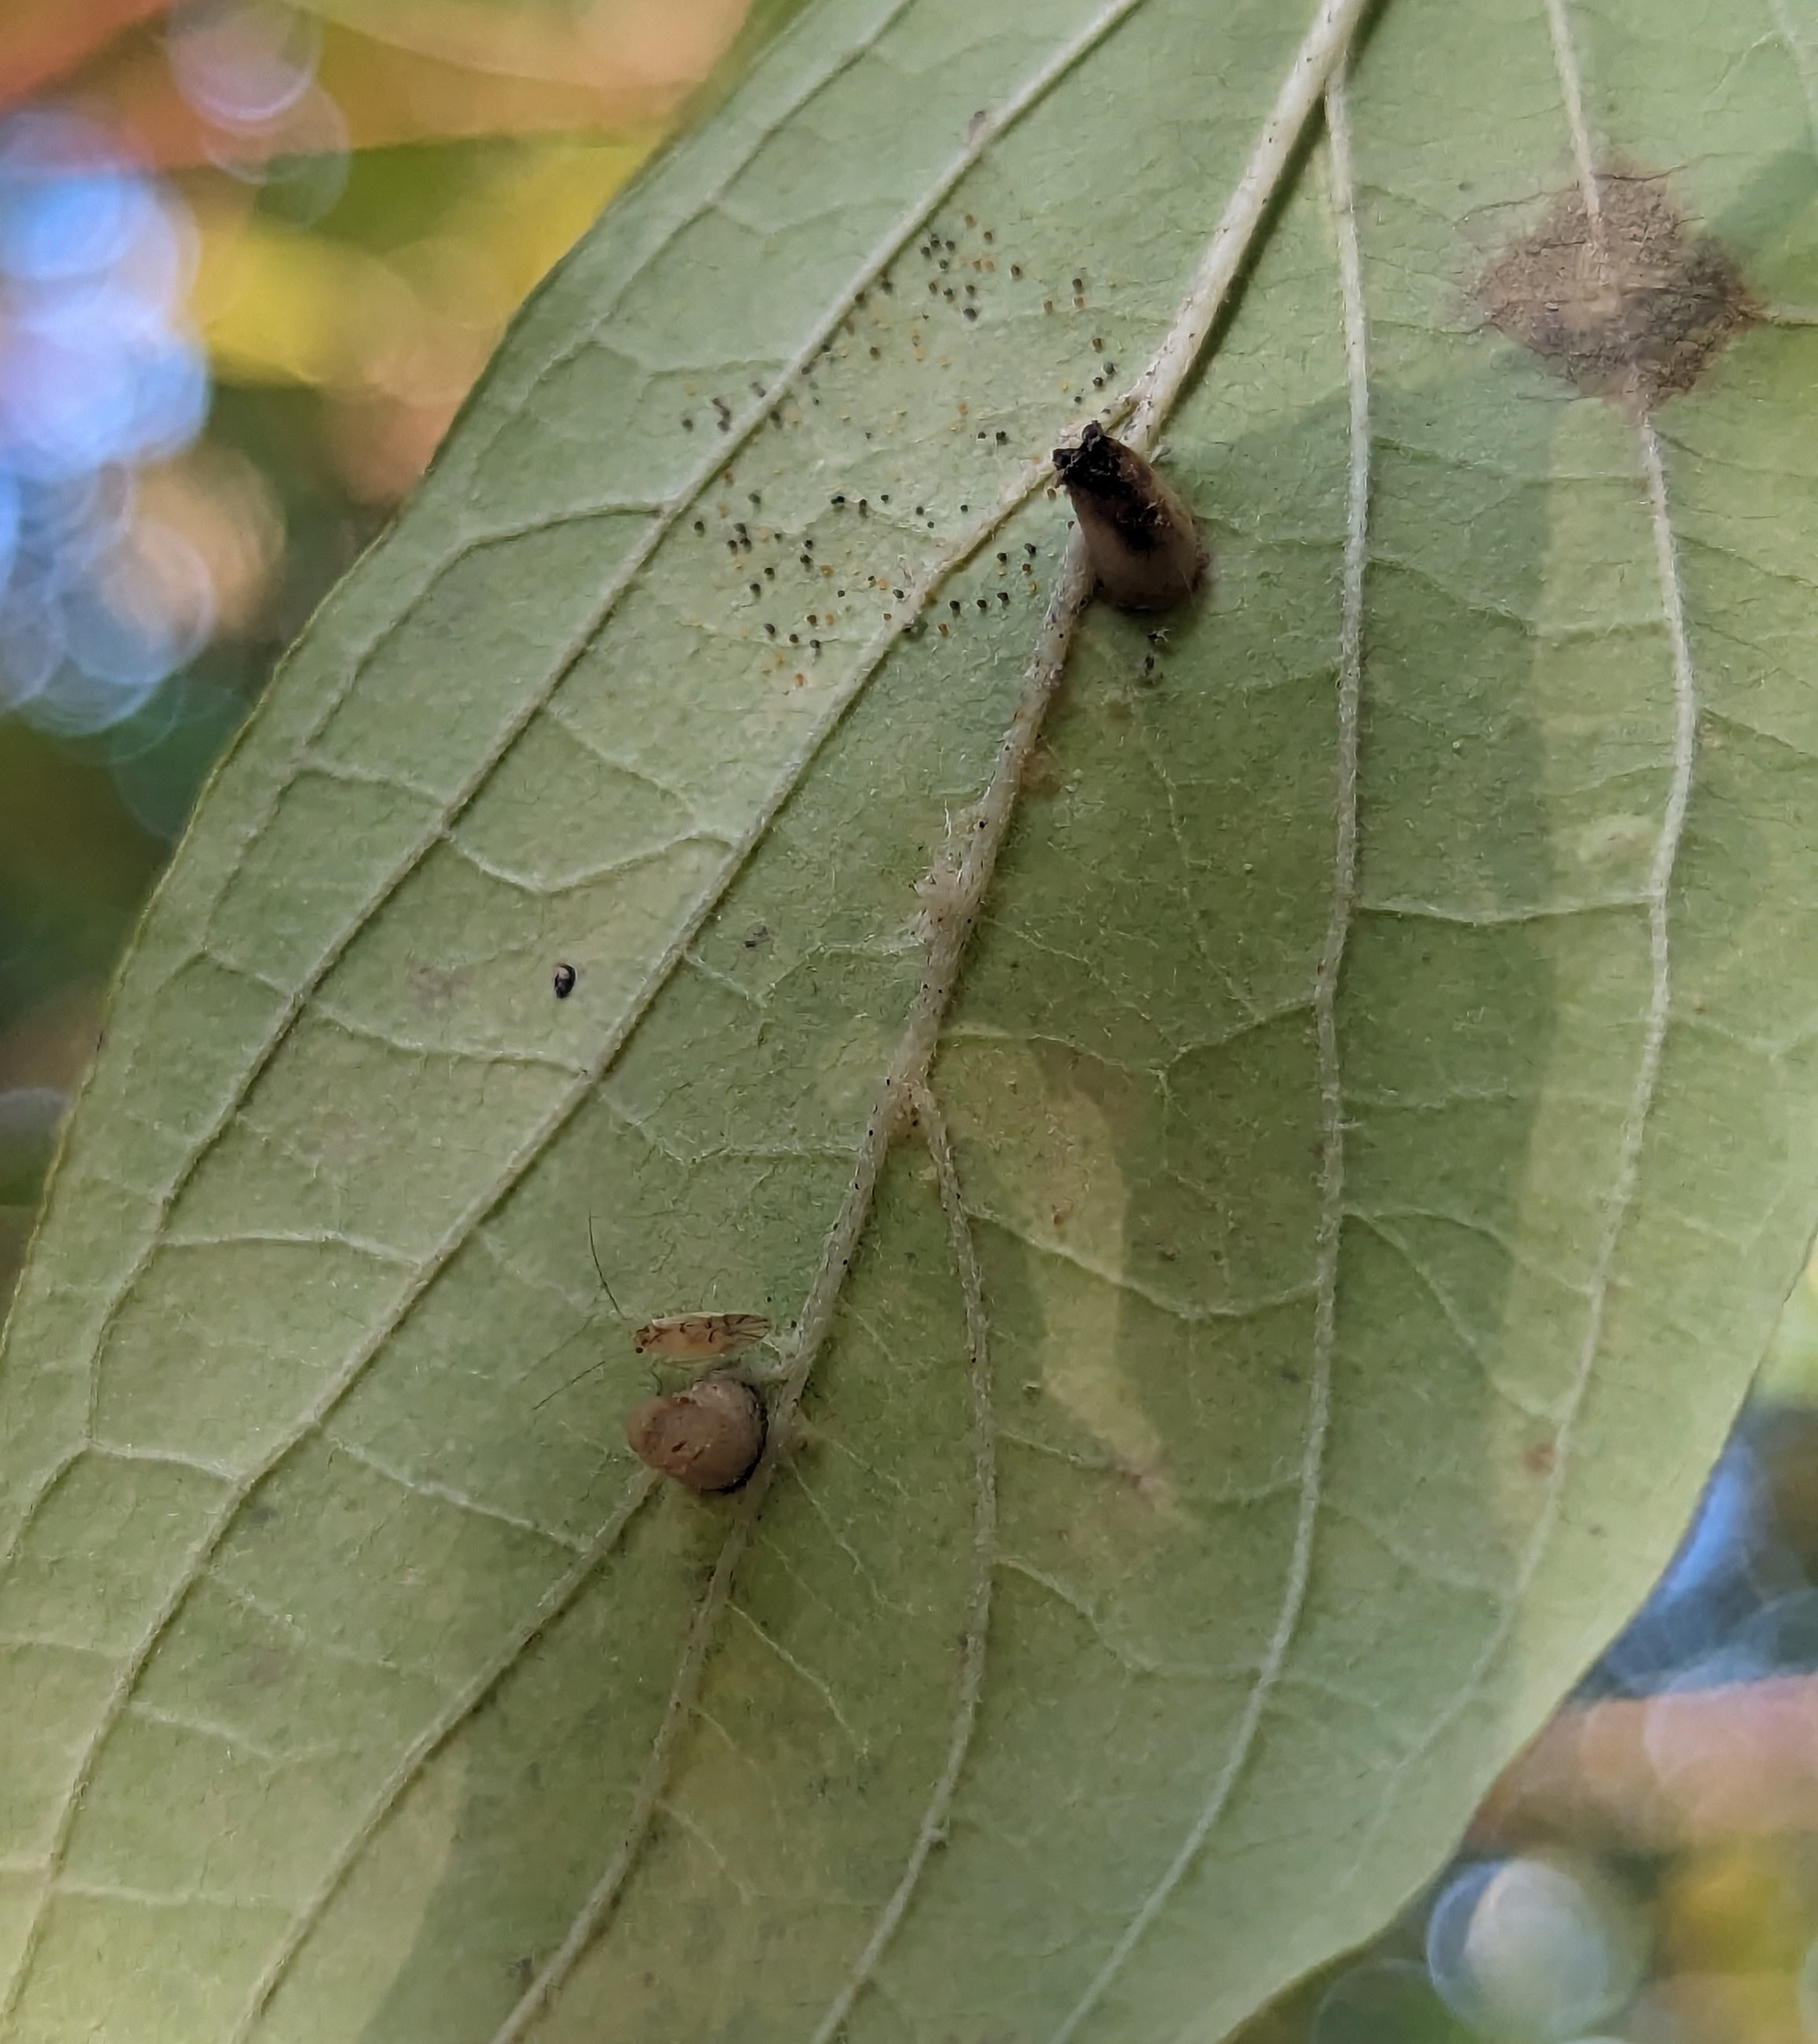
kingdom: Animalia
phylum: Arthropoda
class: Insecta
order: Diptera
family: Cecidomyiidae
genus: Dasineura
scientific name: Dasineura tuba
